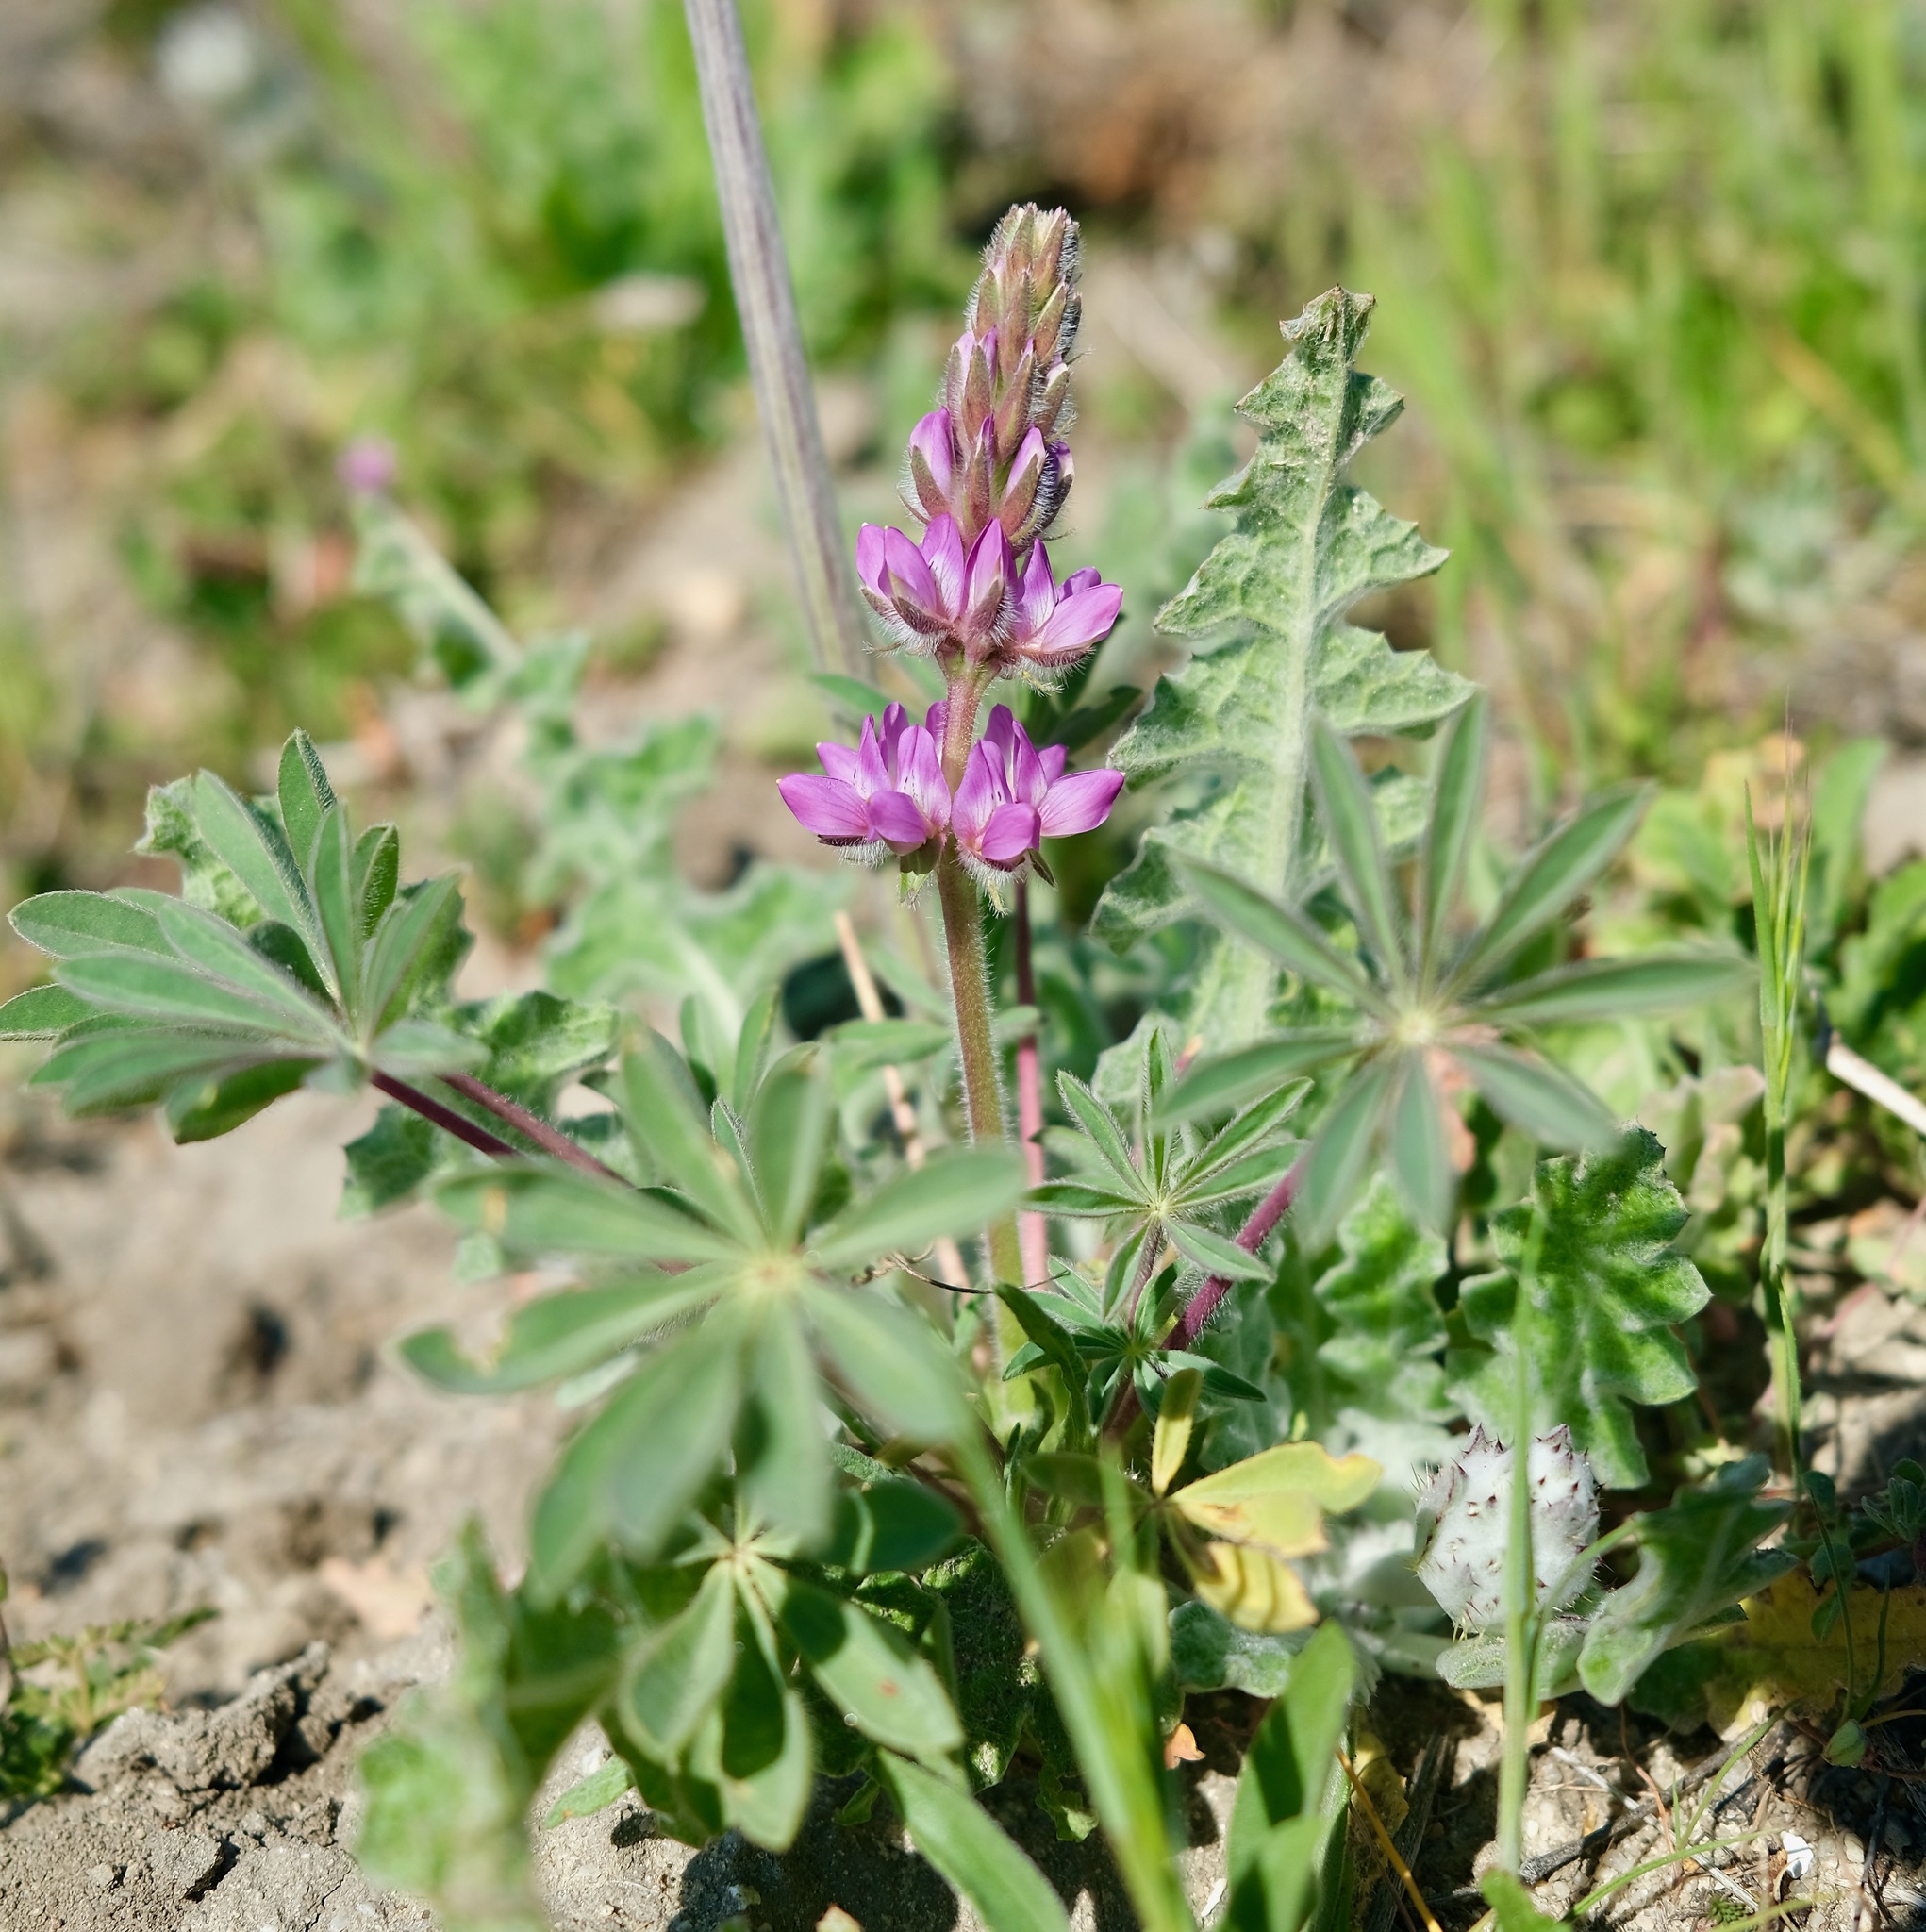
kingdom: Plantae
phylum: Tracheophyta
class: Magnoliopsida
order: Fabales
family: Fabaceae
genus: Lupinus
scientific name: Lupinus microcarpus
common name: Chick lupine
